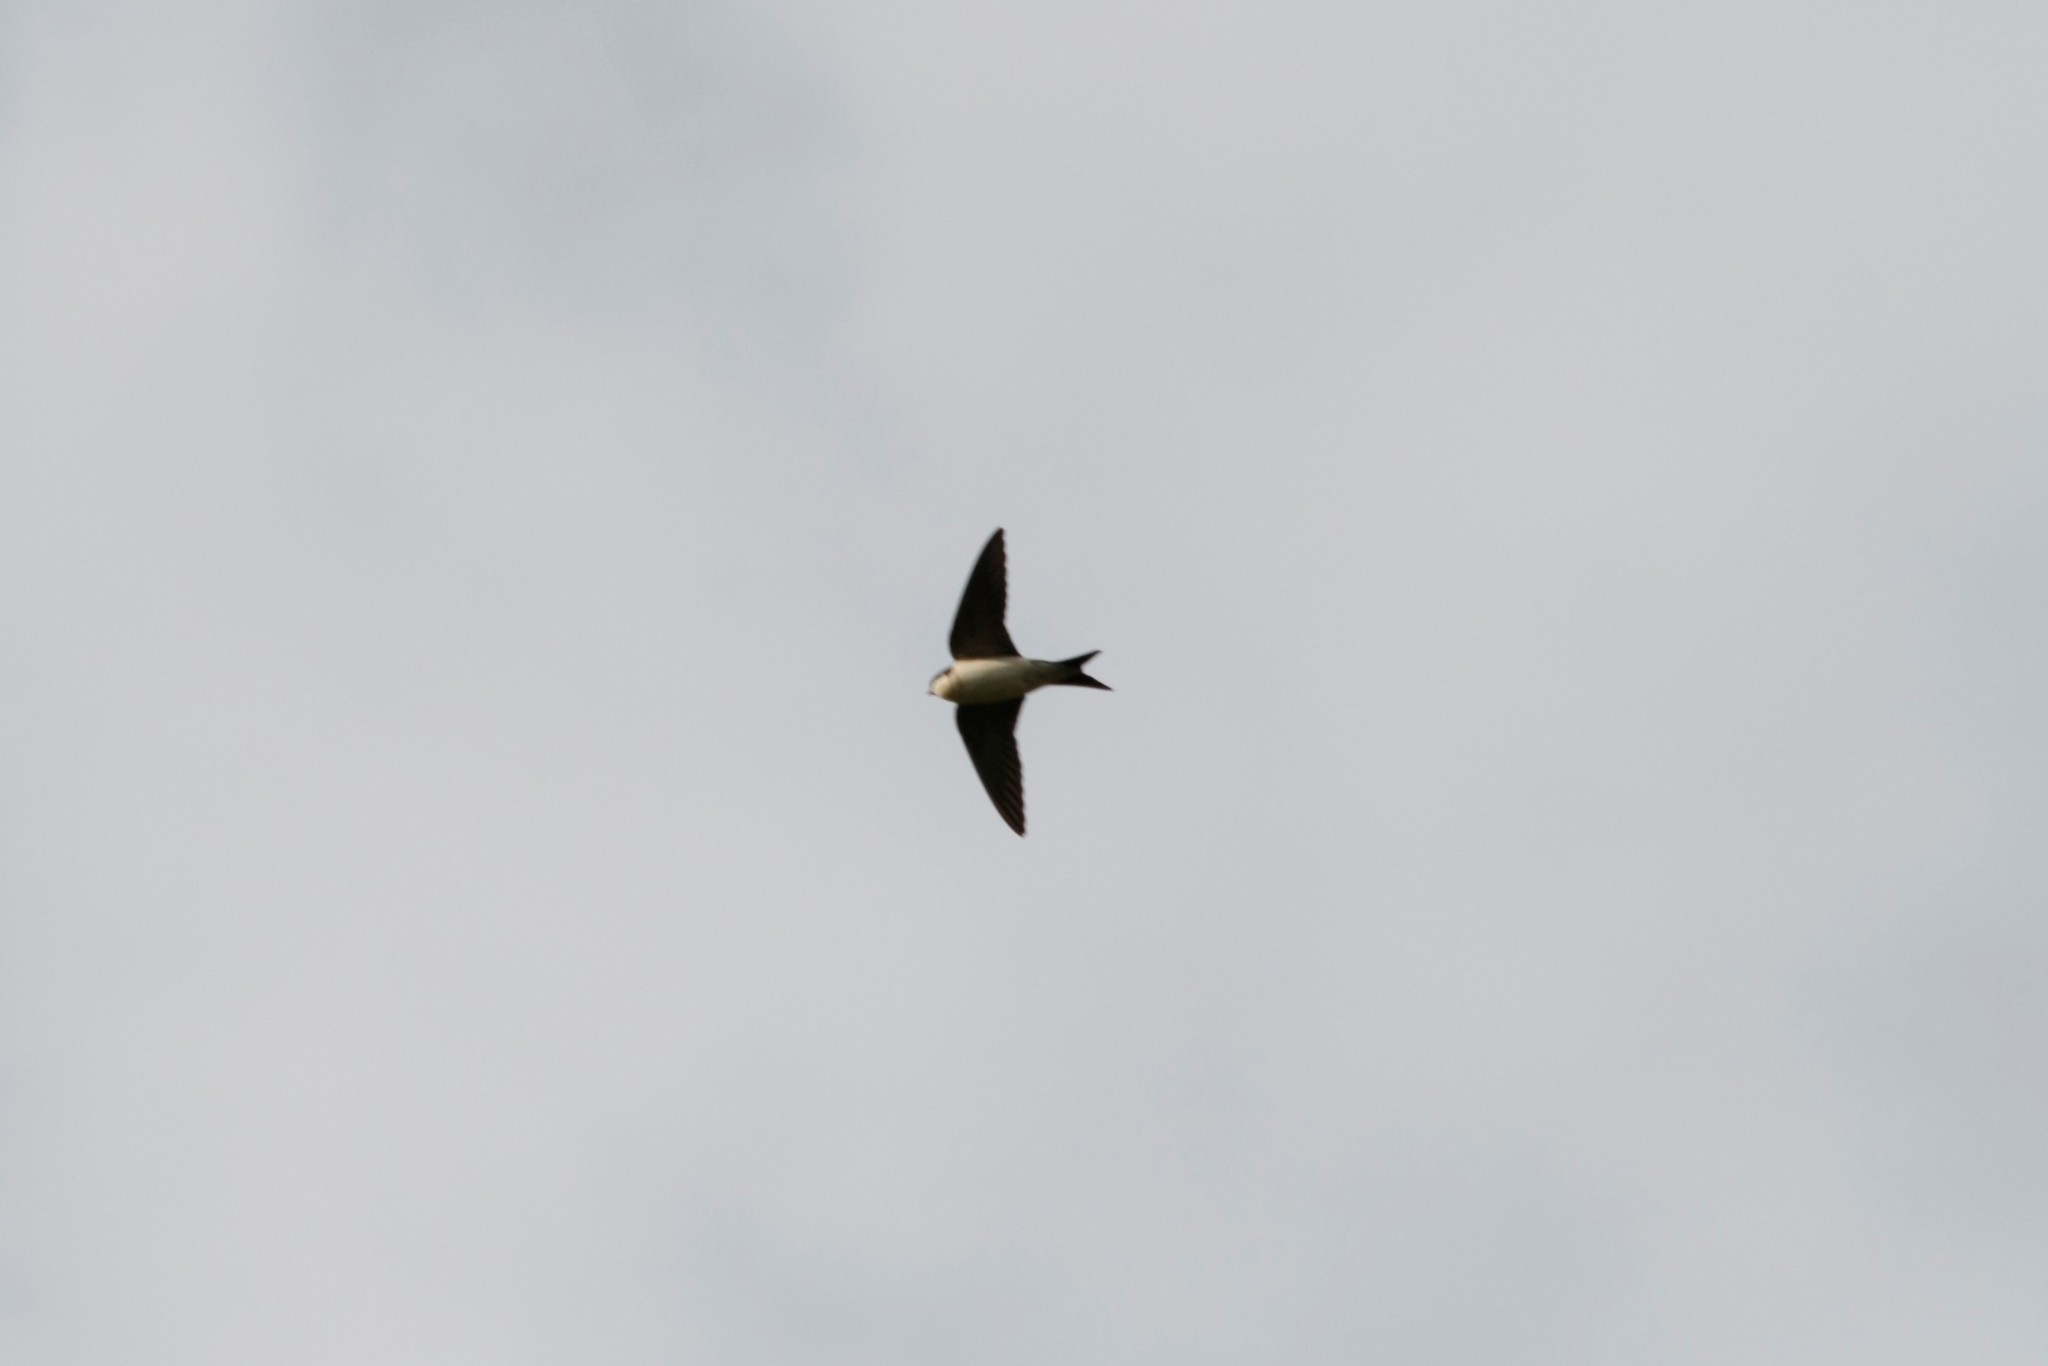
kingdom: Animalia
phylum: Chordata
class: Aves
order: Passeriformes
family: Hirundinidae
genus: Delichon
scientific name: Delichon urbicum
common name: Common house martin
